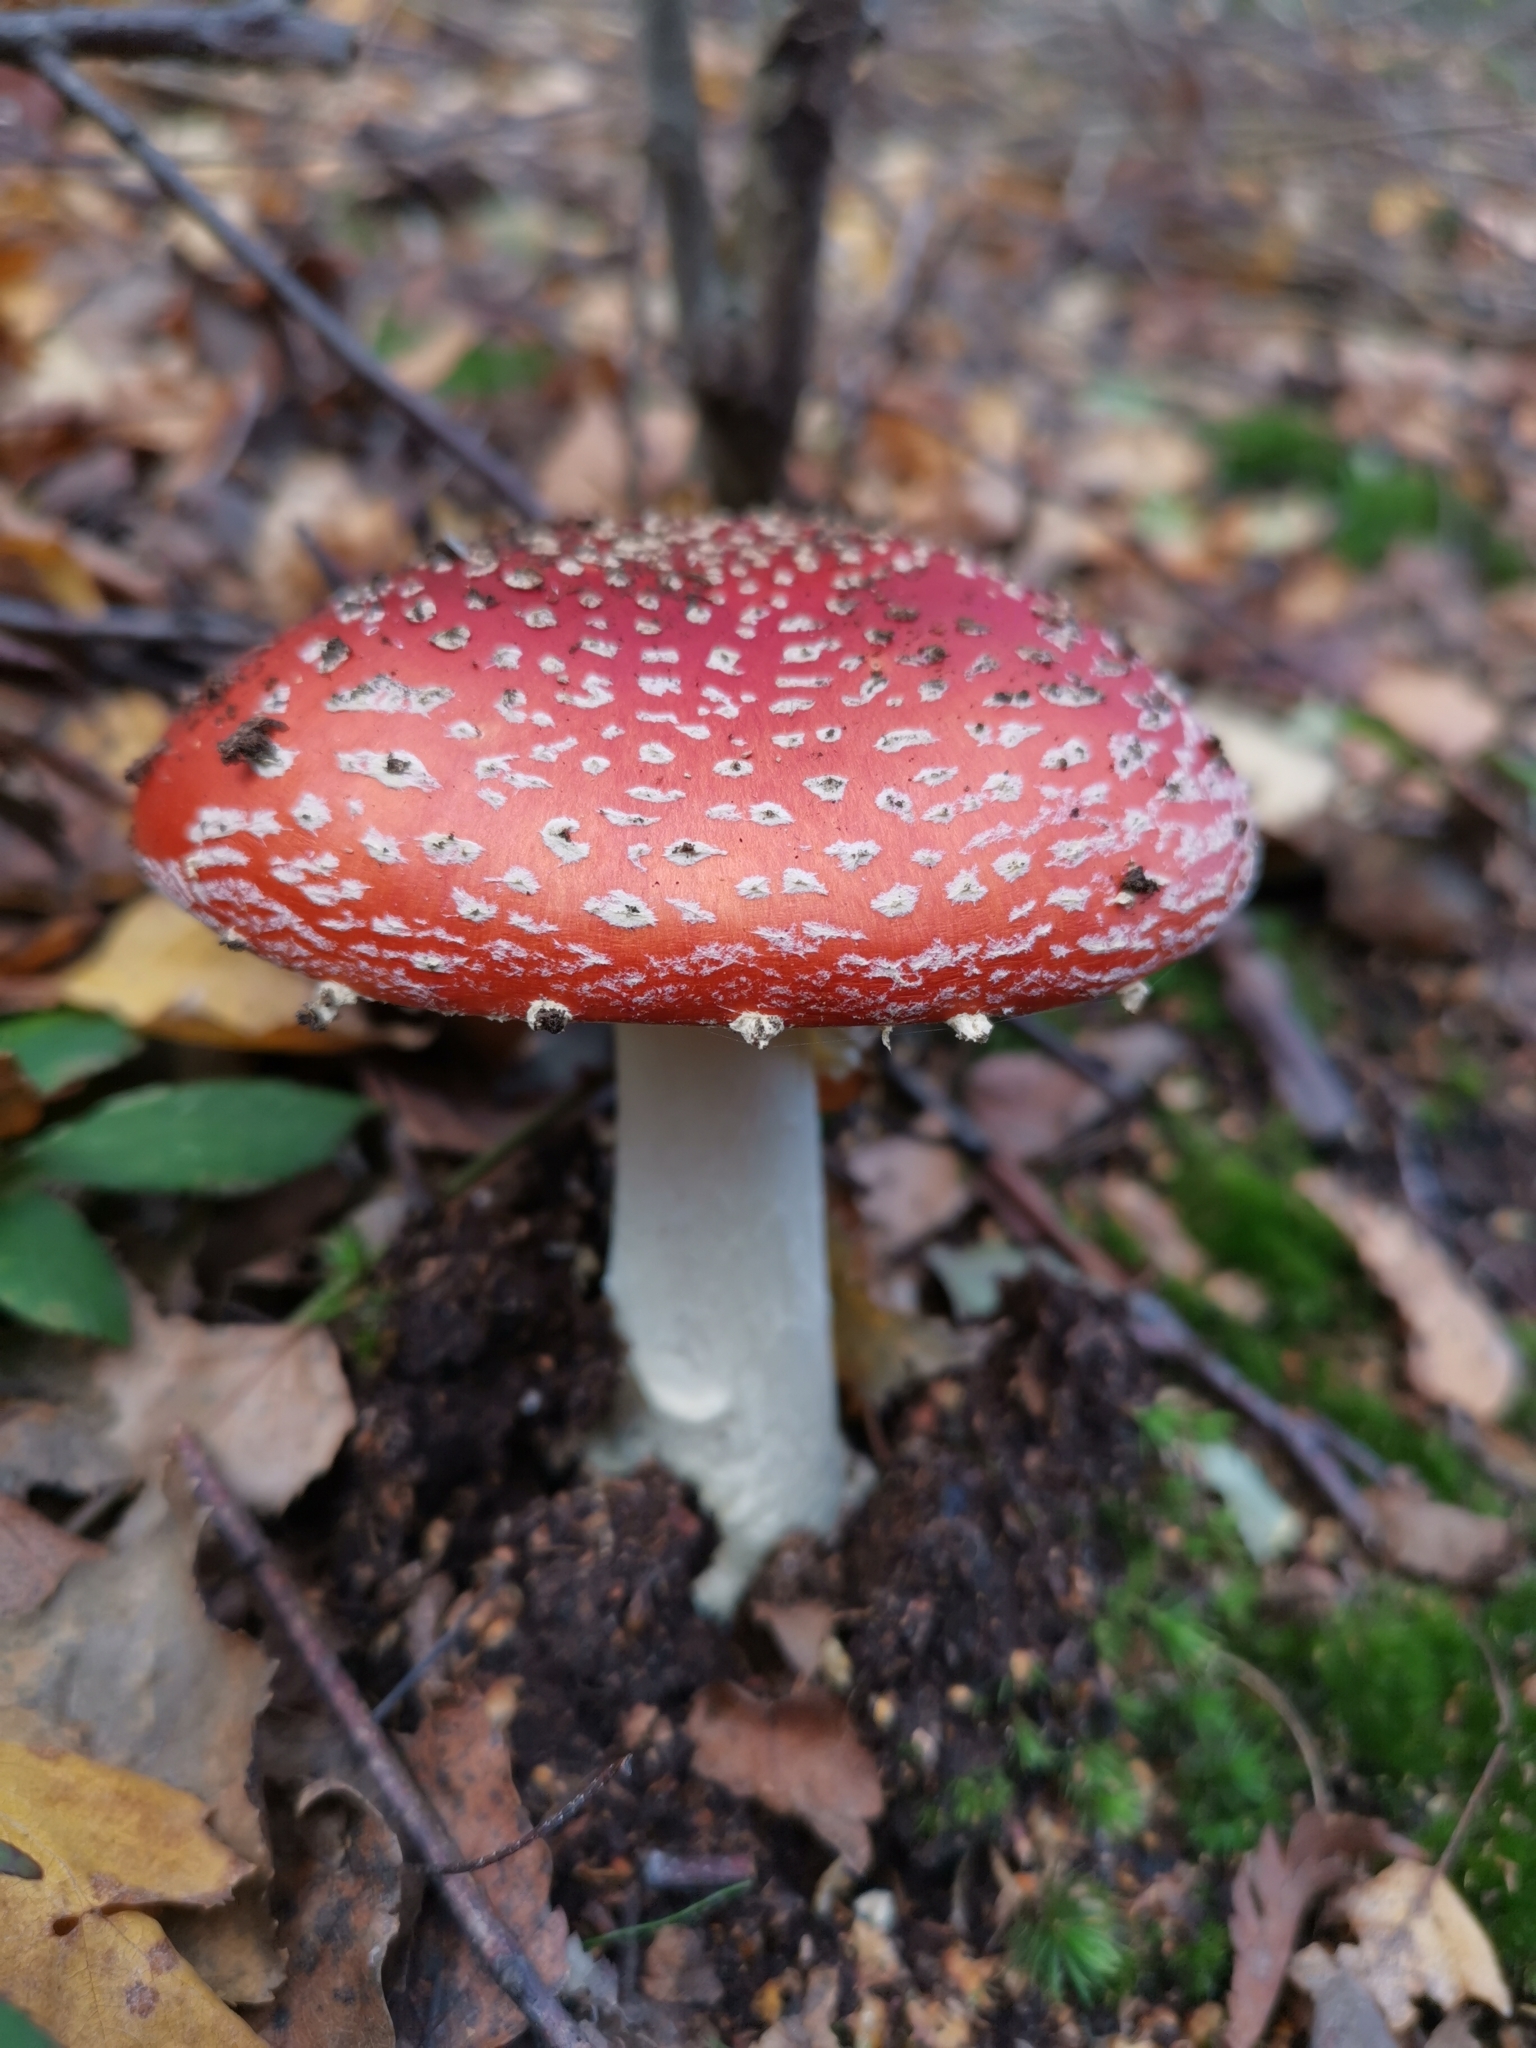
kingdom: Fungi
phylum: Basidiomycota
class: Agaricomycetes
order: Agaricales
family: Amanitaceae
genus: Amanita
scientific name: Amanita muscaria
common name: Fly agaric
